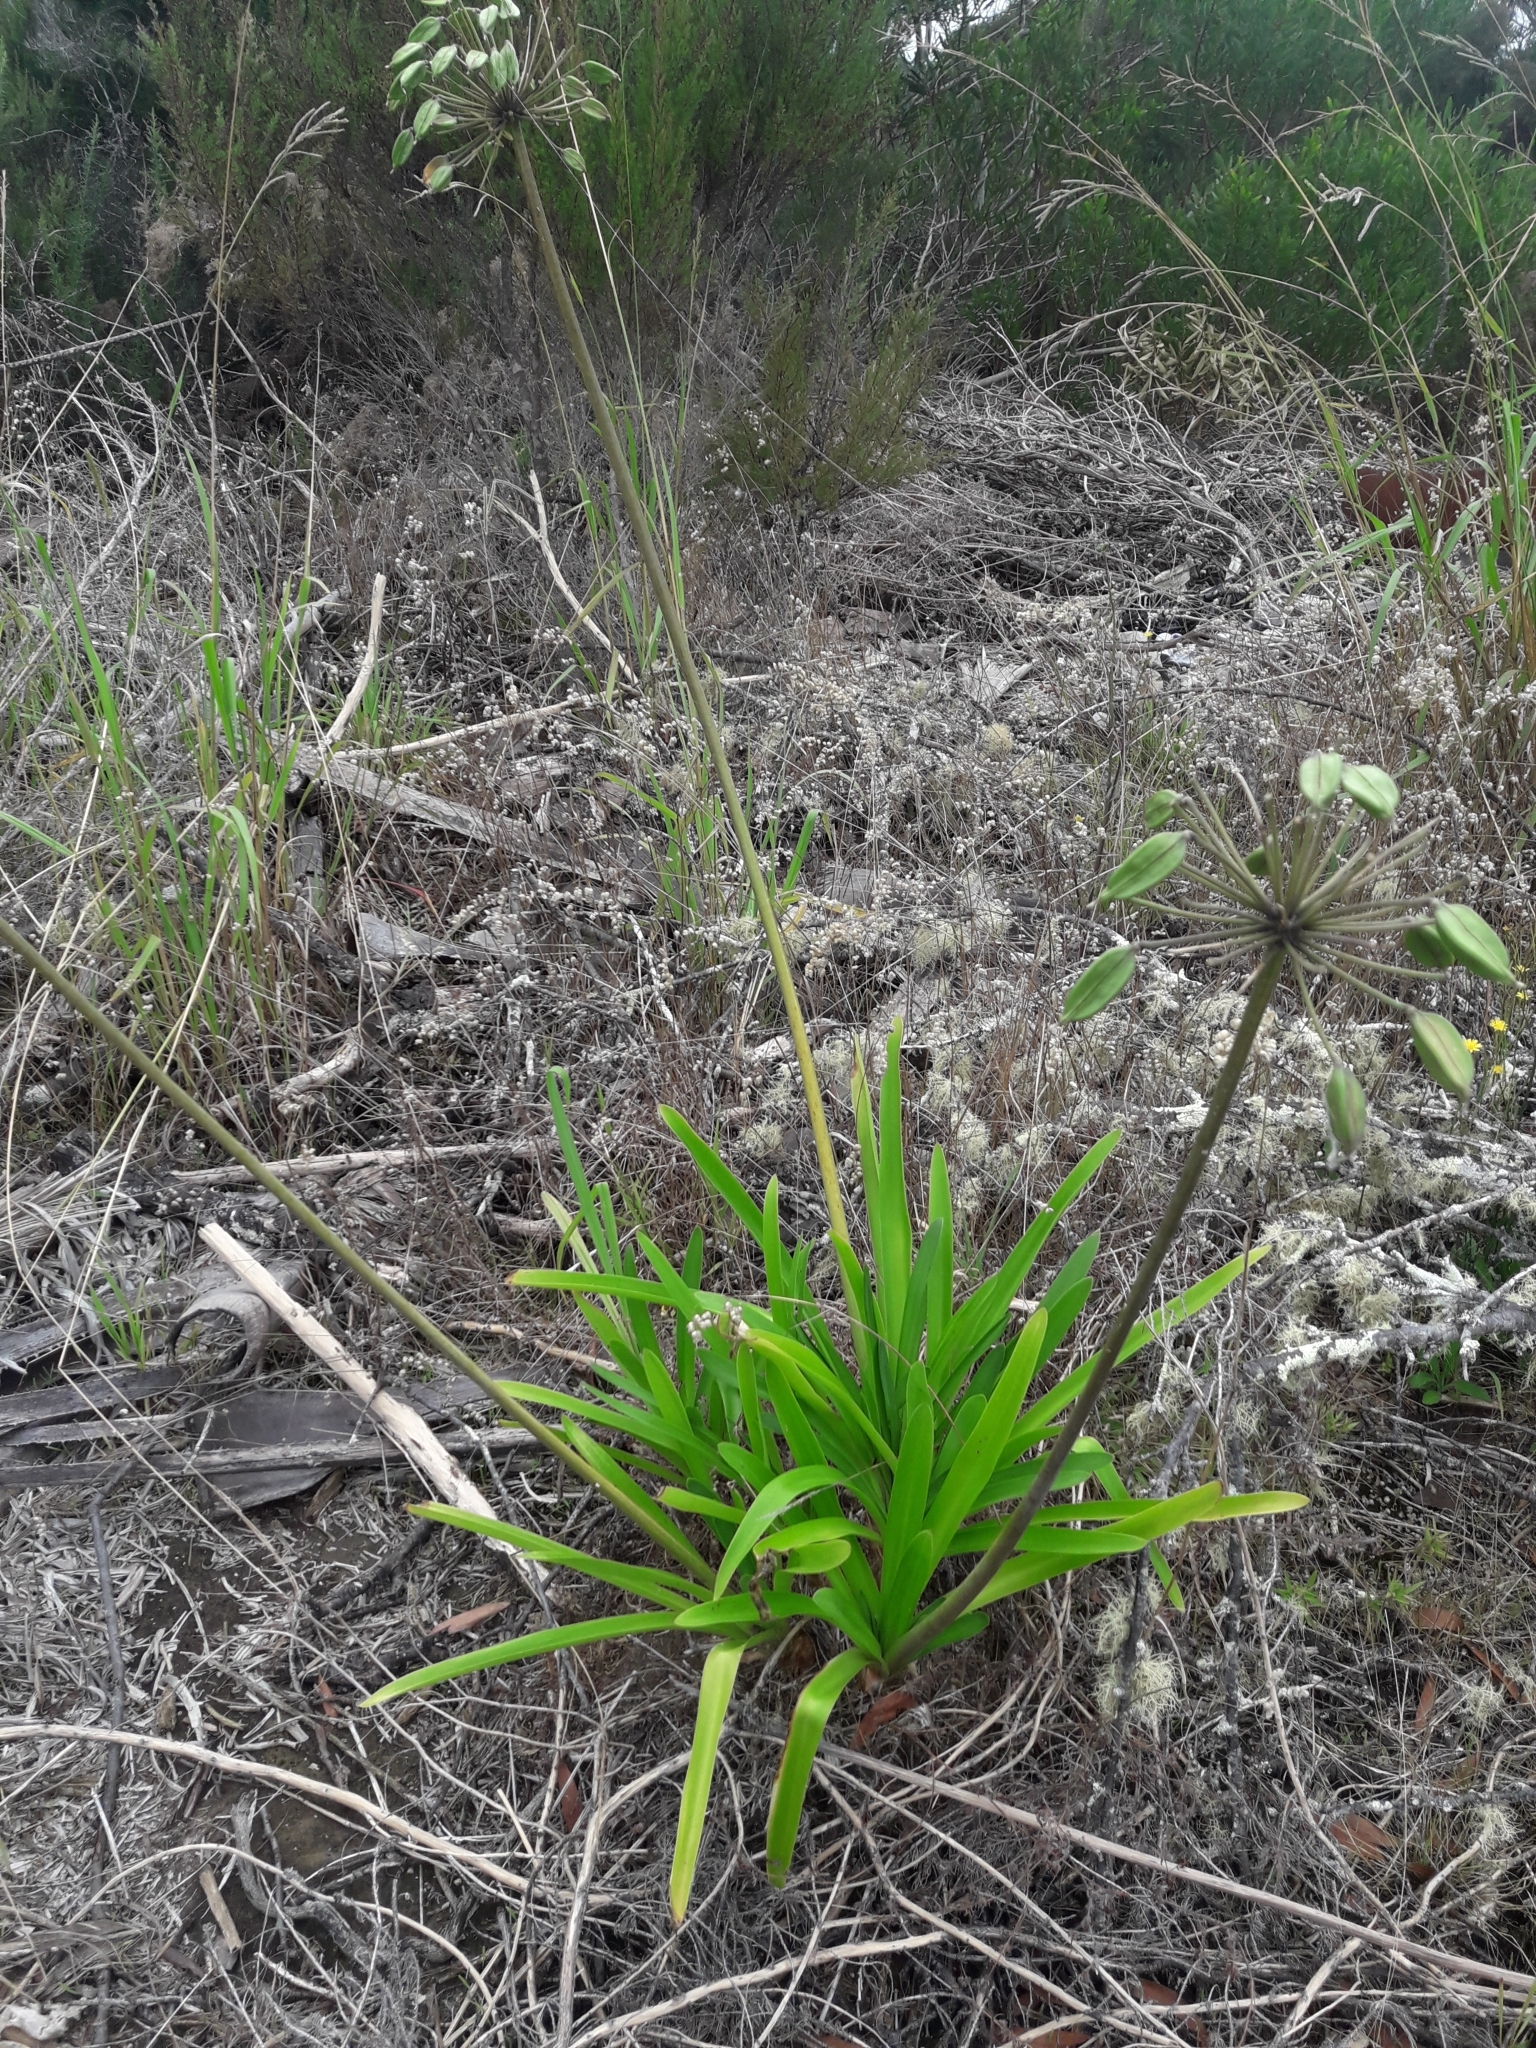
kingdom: Plantae
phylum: Tracheophyta
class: Liliopsida
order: Asparagales
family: Amaryllidaceae
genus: Agapanthus
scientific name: Agapanthus praecox
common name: African-lily
